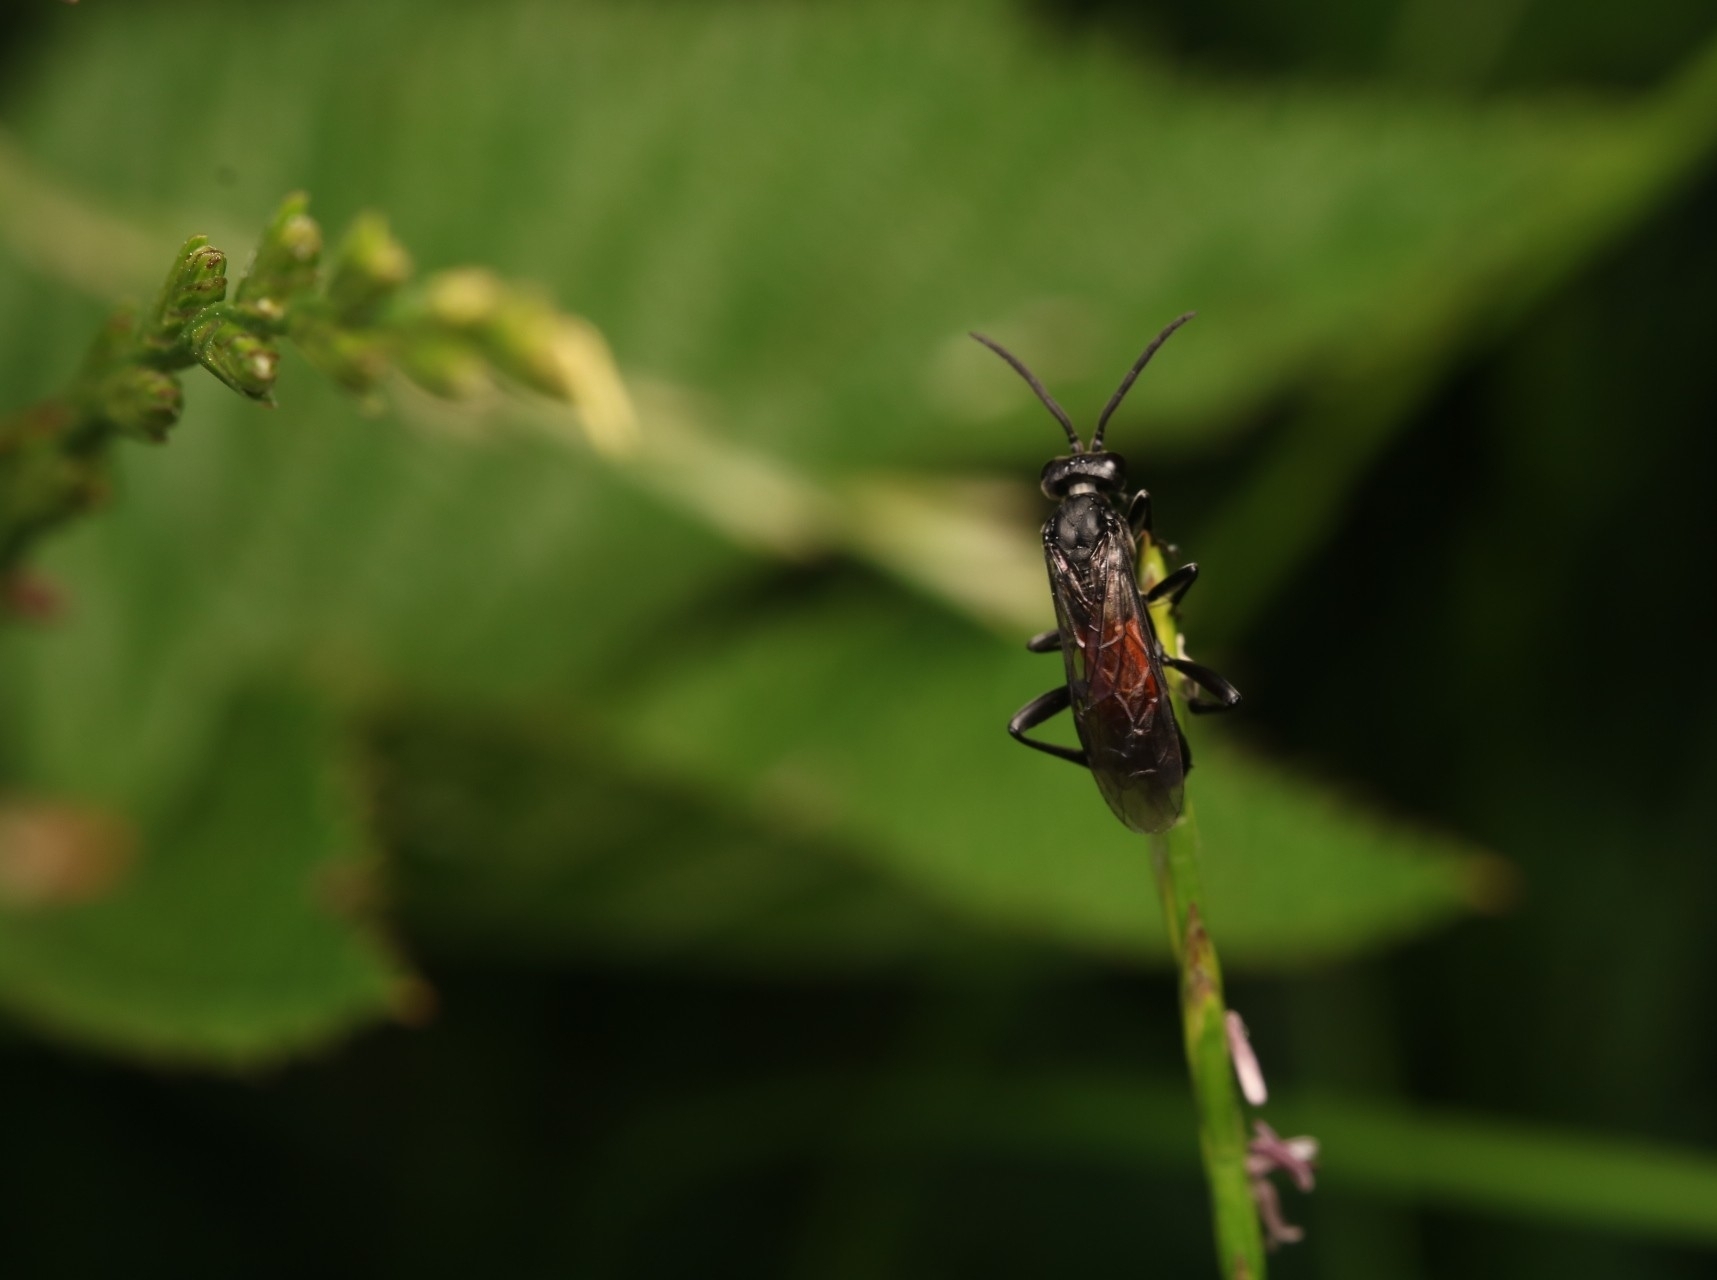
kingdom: Animalia
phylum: Arthropoda
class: Insecta
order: Hymenoptera
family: Tenthredinidae
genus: Macrophya
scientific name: Macrophya annulata
